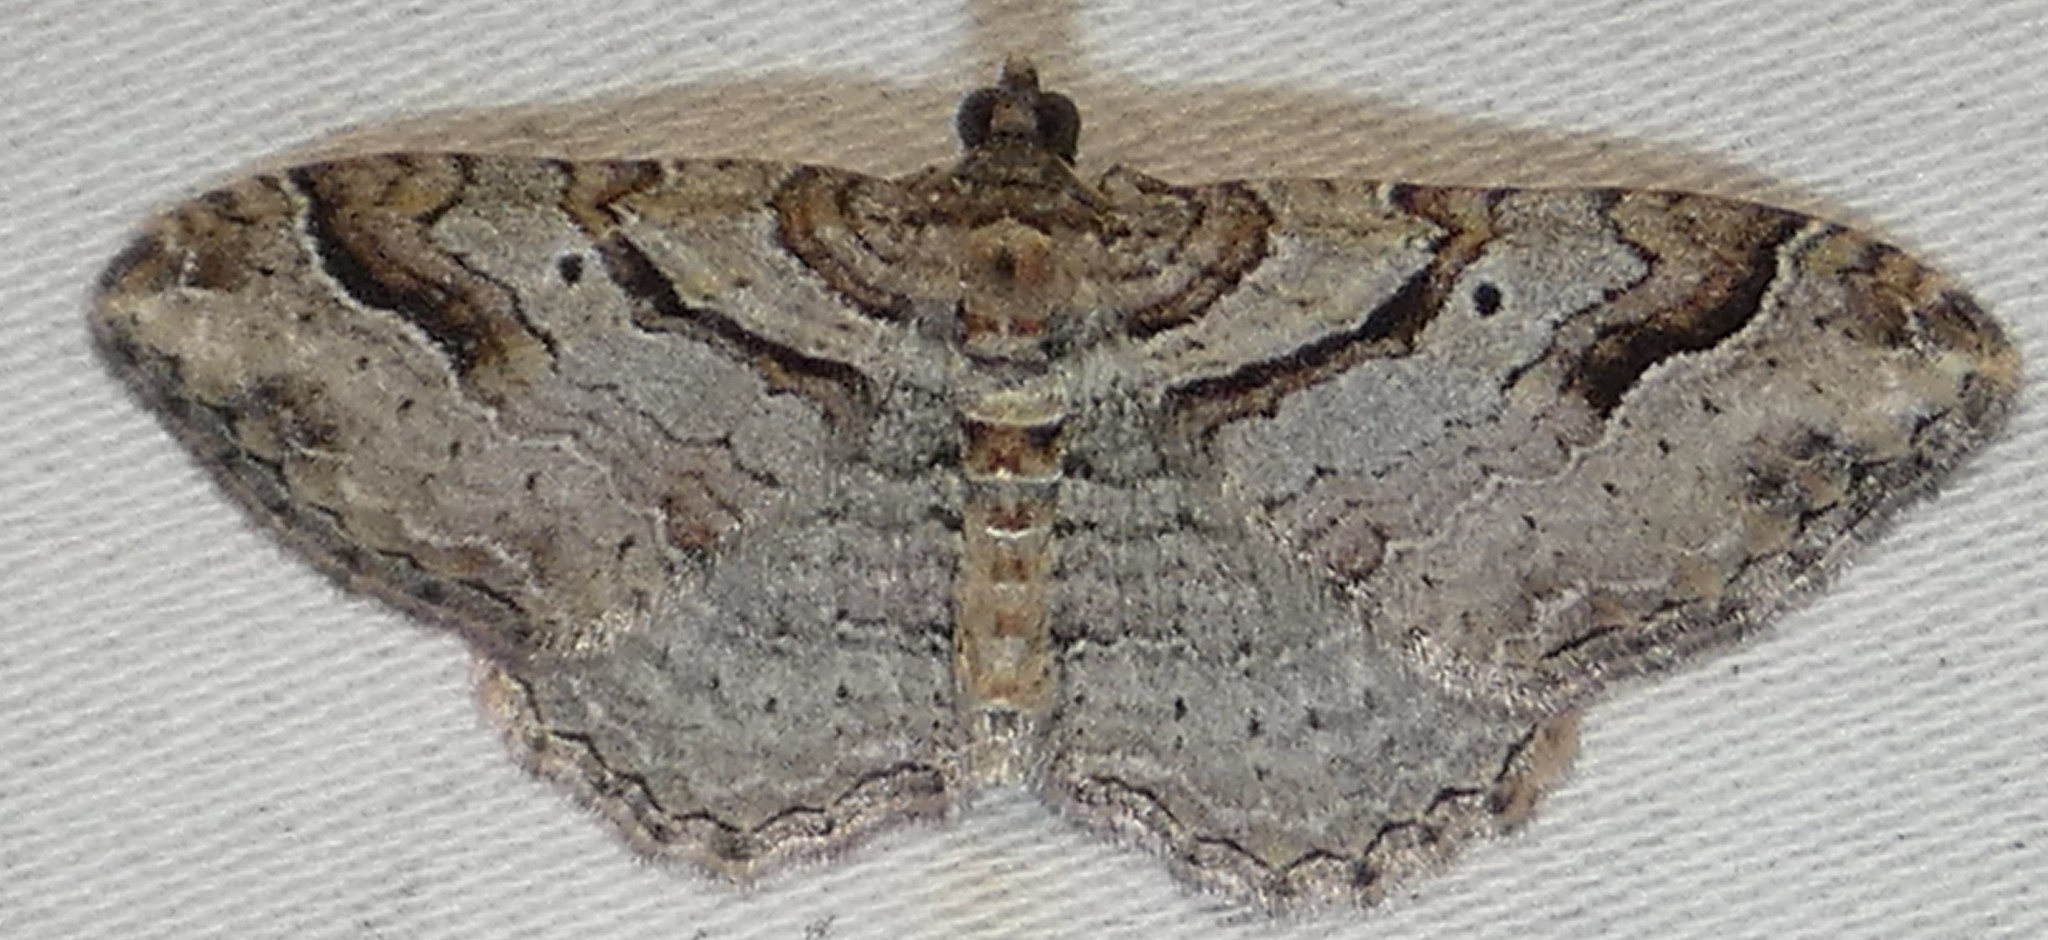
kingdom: Animalia
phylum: Arthropoda
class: Insecta
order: Lepidoptera
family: Geometridae
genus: Costaconvexa
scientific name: Costaconvexa centrostrigaria
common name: Bent-line carpet
